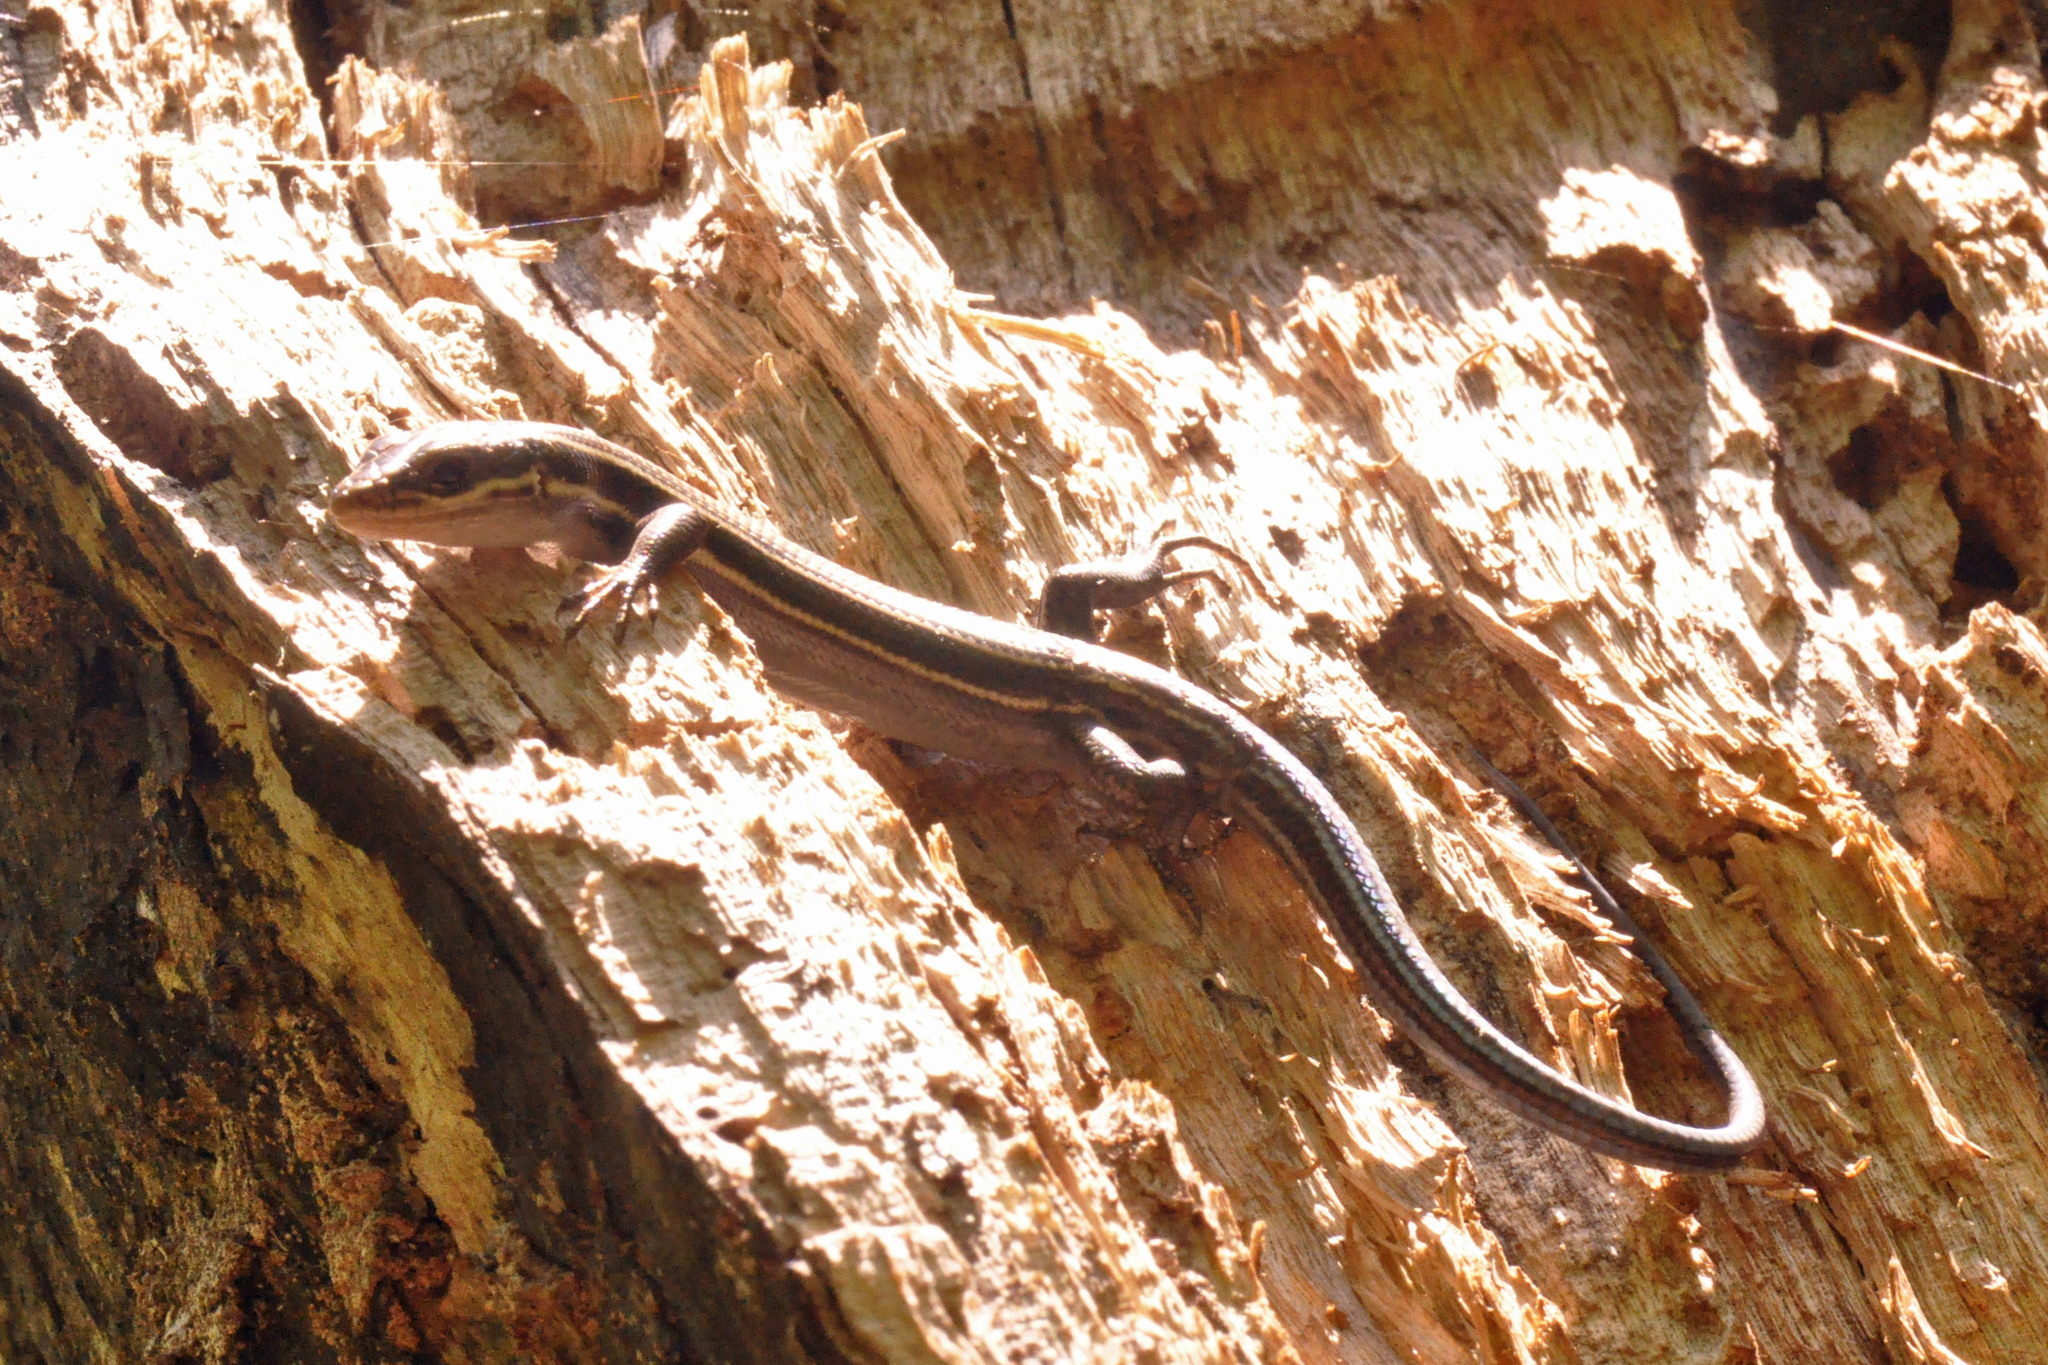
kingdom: Animalia
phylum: Chordata
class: Squamata
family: Scincidae
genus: Plestiodon
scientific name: Plestiodon fasciatus
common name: Five-lined skink
